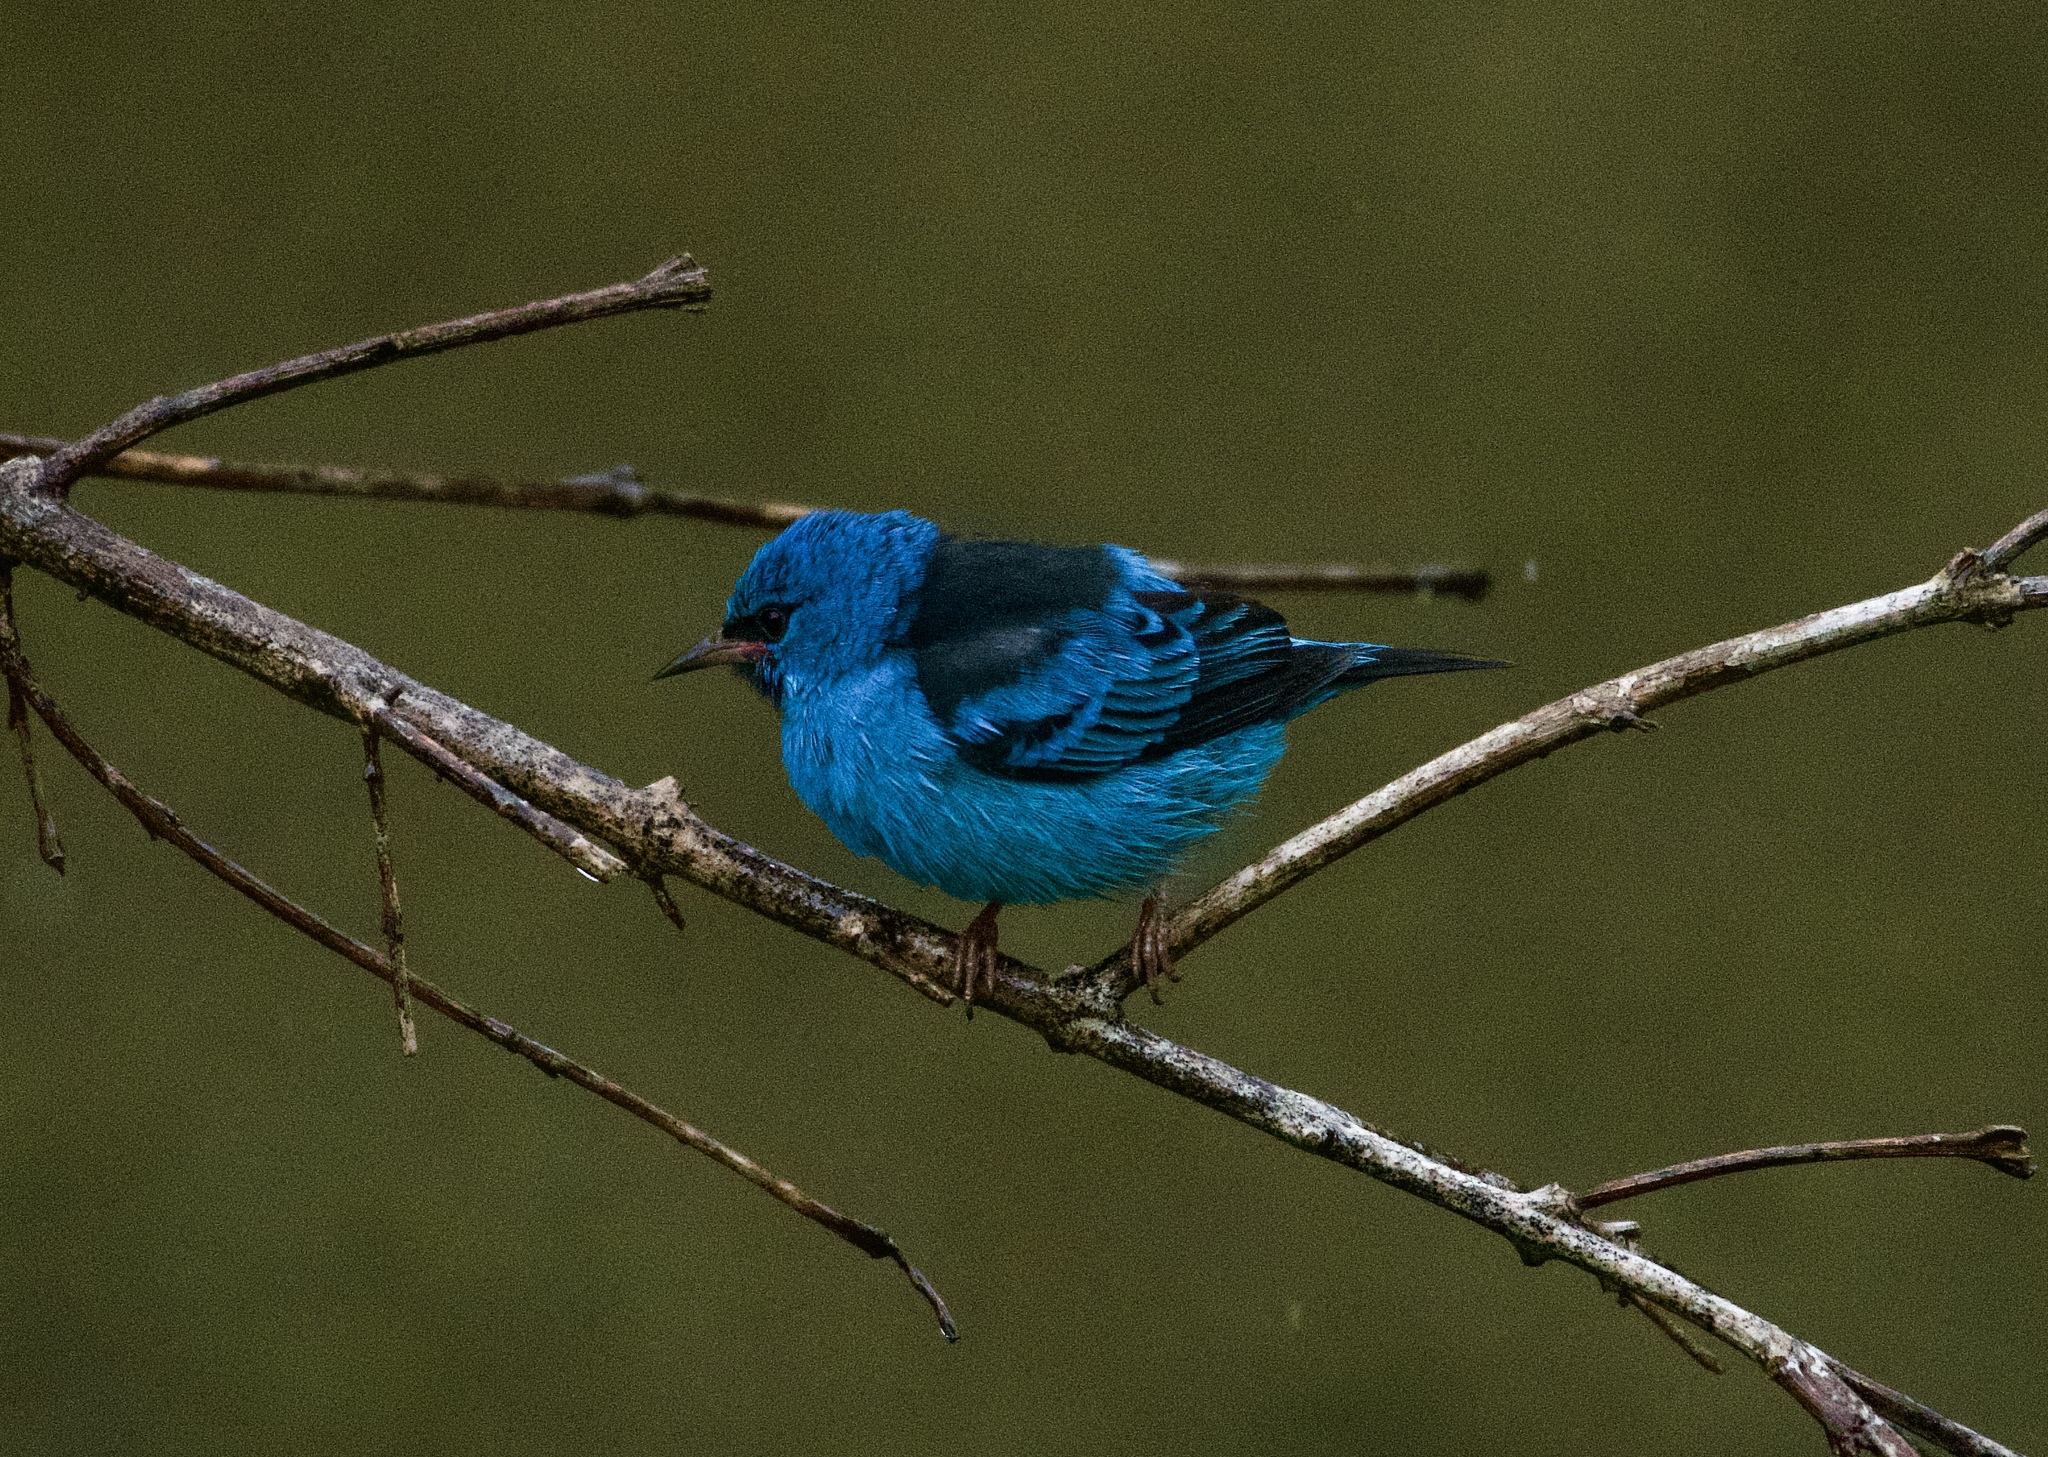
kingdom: Animalia
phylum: Chordata
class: Aves
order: Passeriformes
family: Thraupidae
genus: Dacnis
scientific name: Dacnis cayana
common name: Blue dacnis
